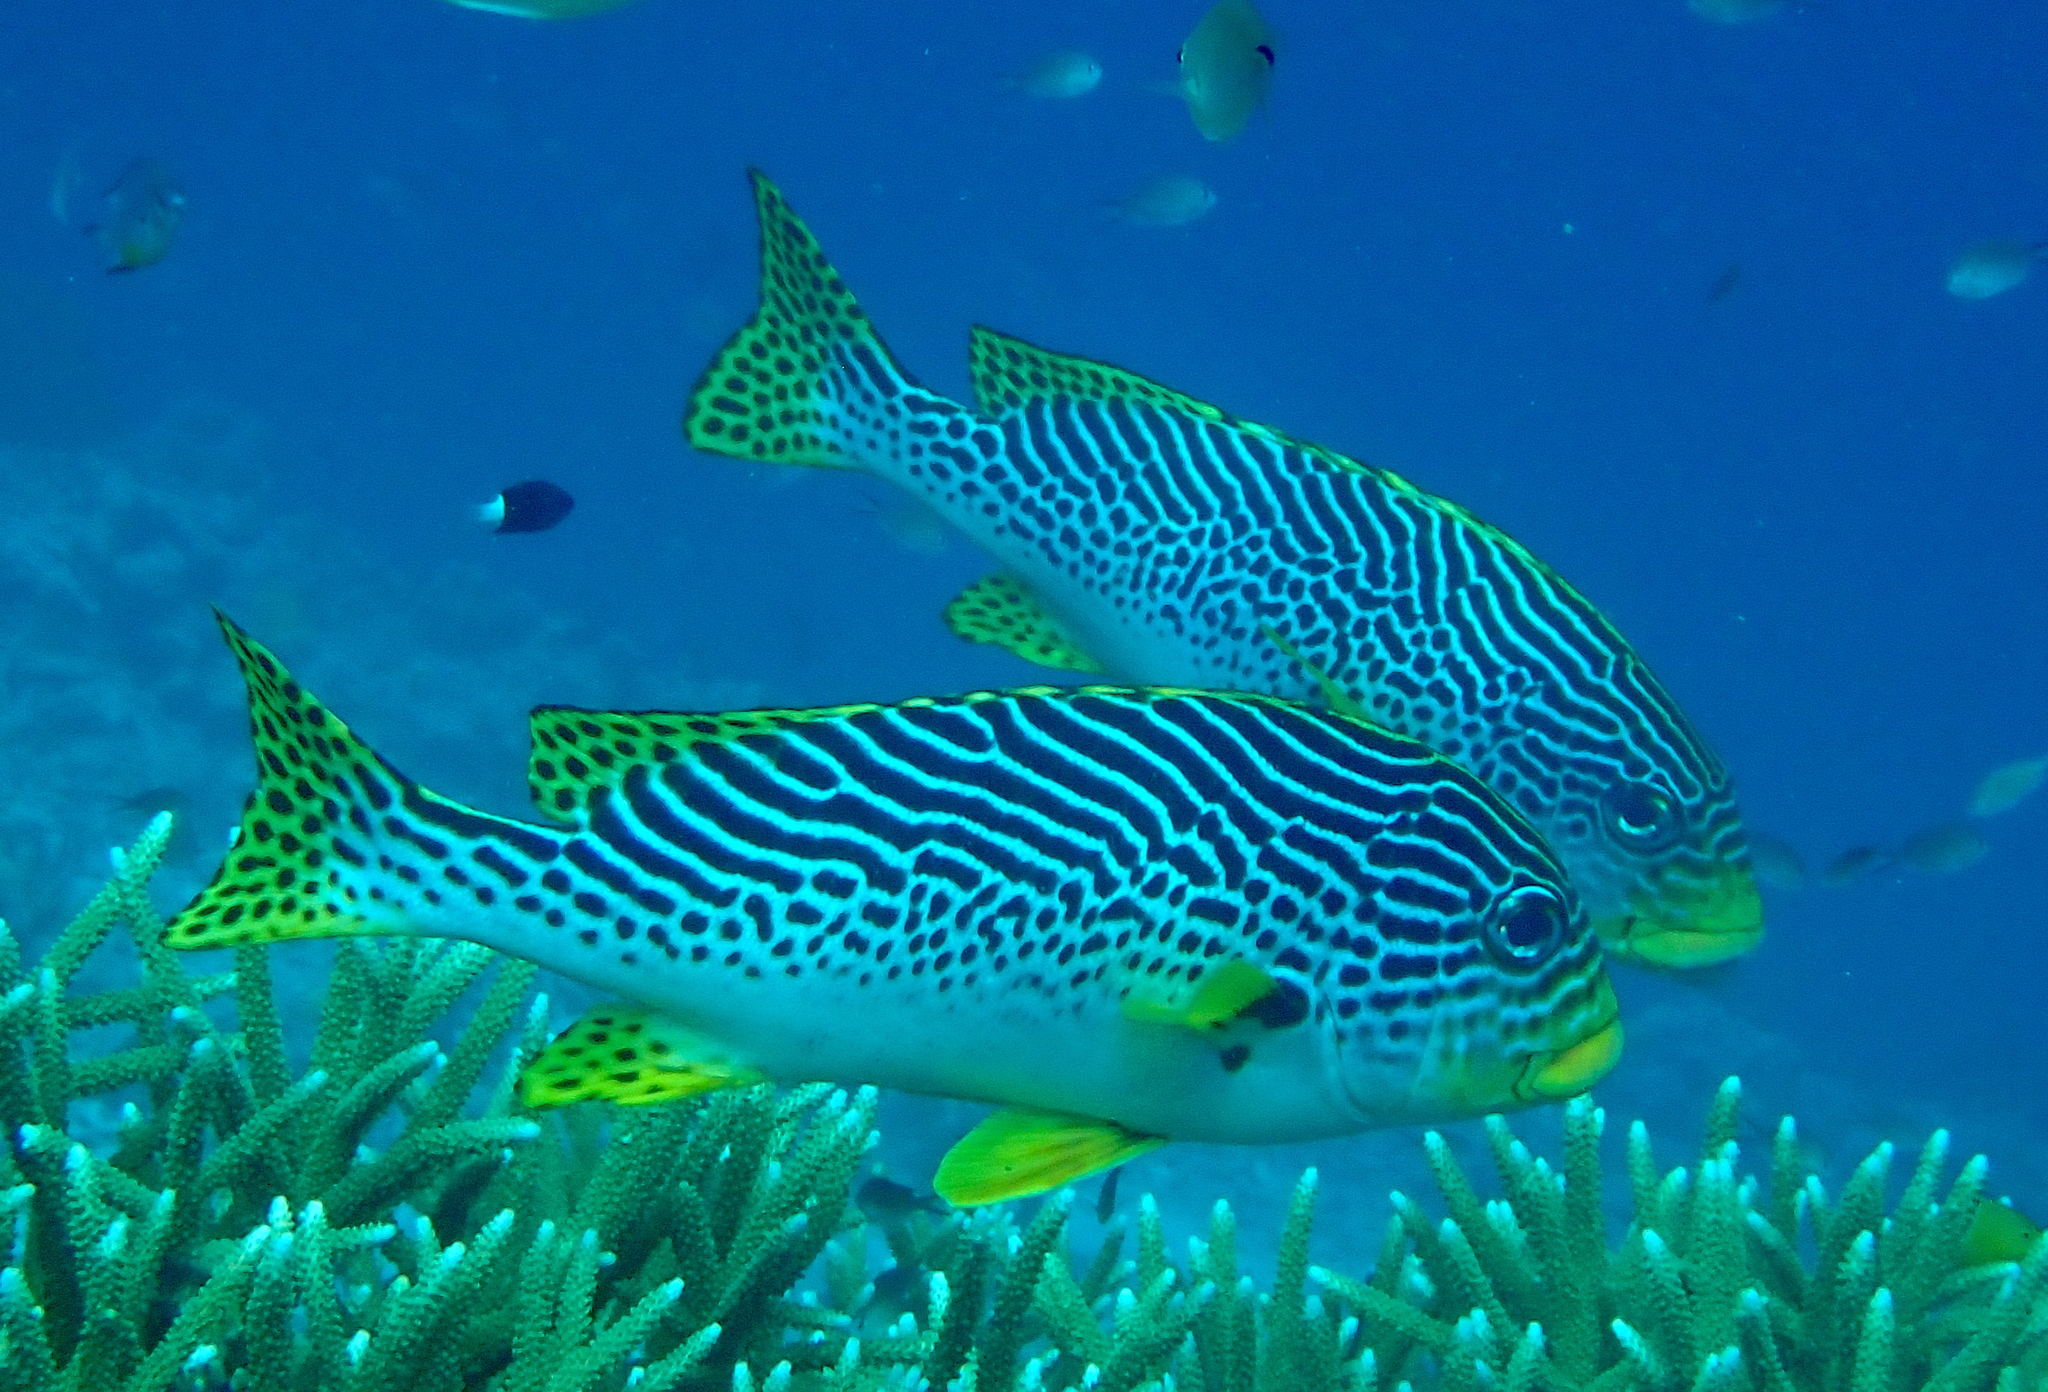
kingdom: Animalia
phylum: Chordata
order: Perciformes
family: Haemulidae
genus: Plectorhinchus
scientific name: Plectorhinchus lineatus
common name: Goldman's sweetlips
